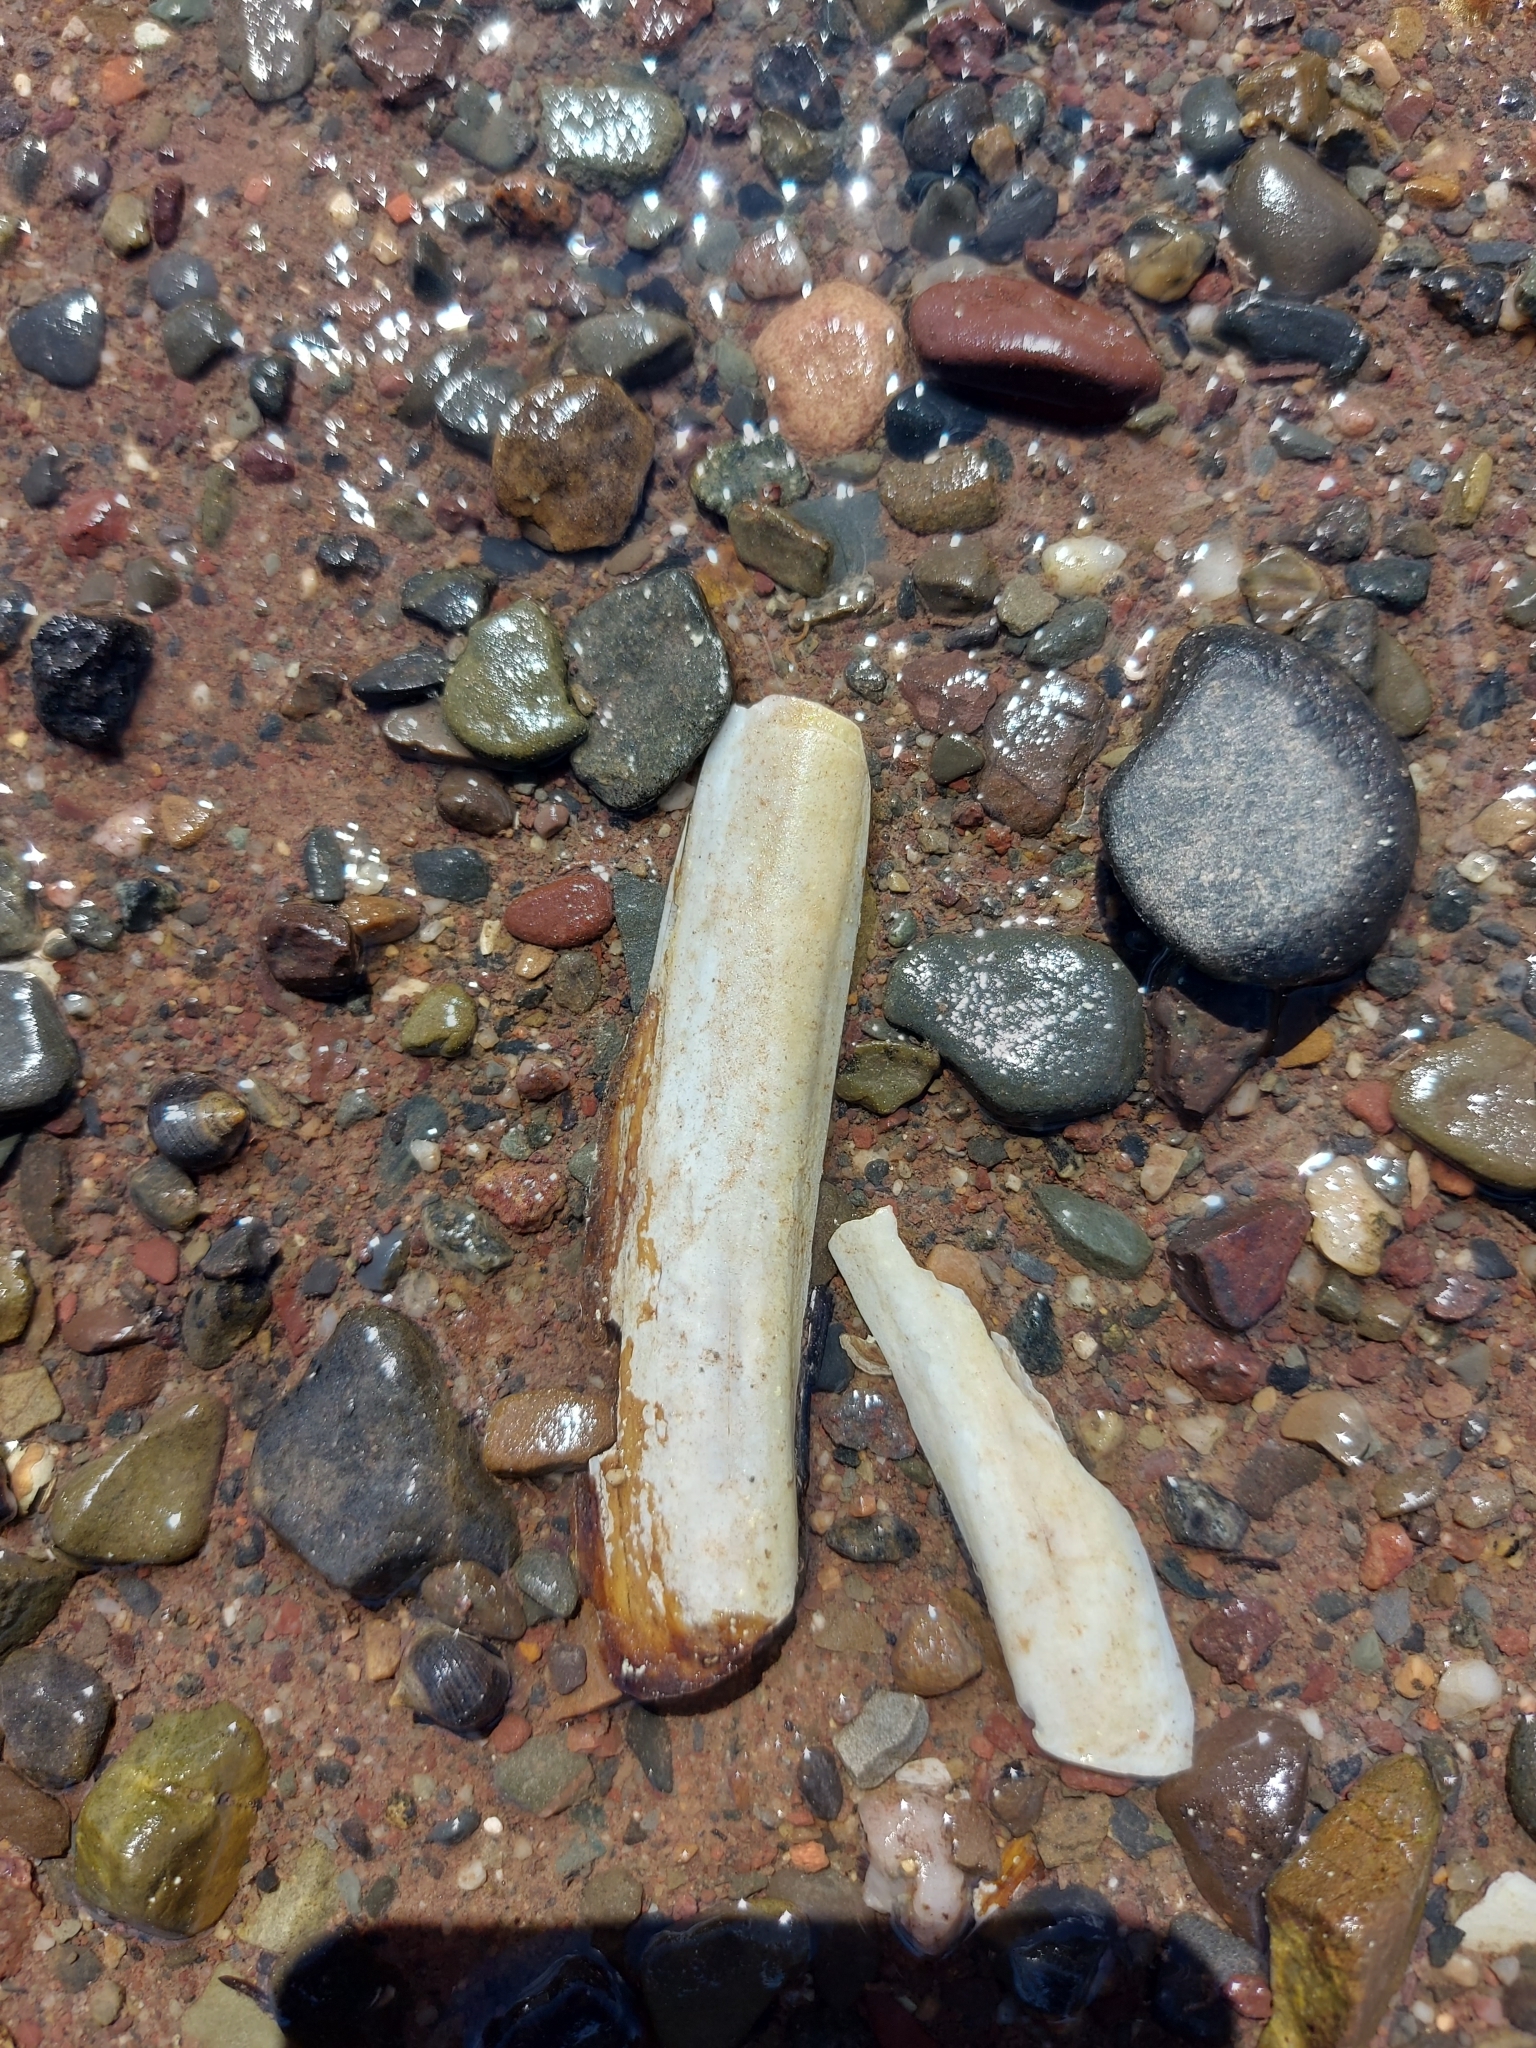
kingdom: Animalia
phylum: Mollusca
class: Bivalvia
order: Adapedonta
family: Pharidae
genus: Ensis
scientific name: Ensis leei
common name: American jack knife clam
